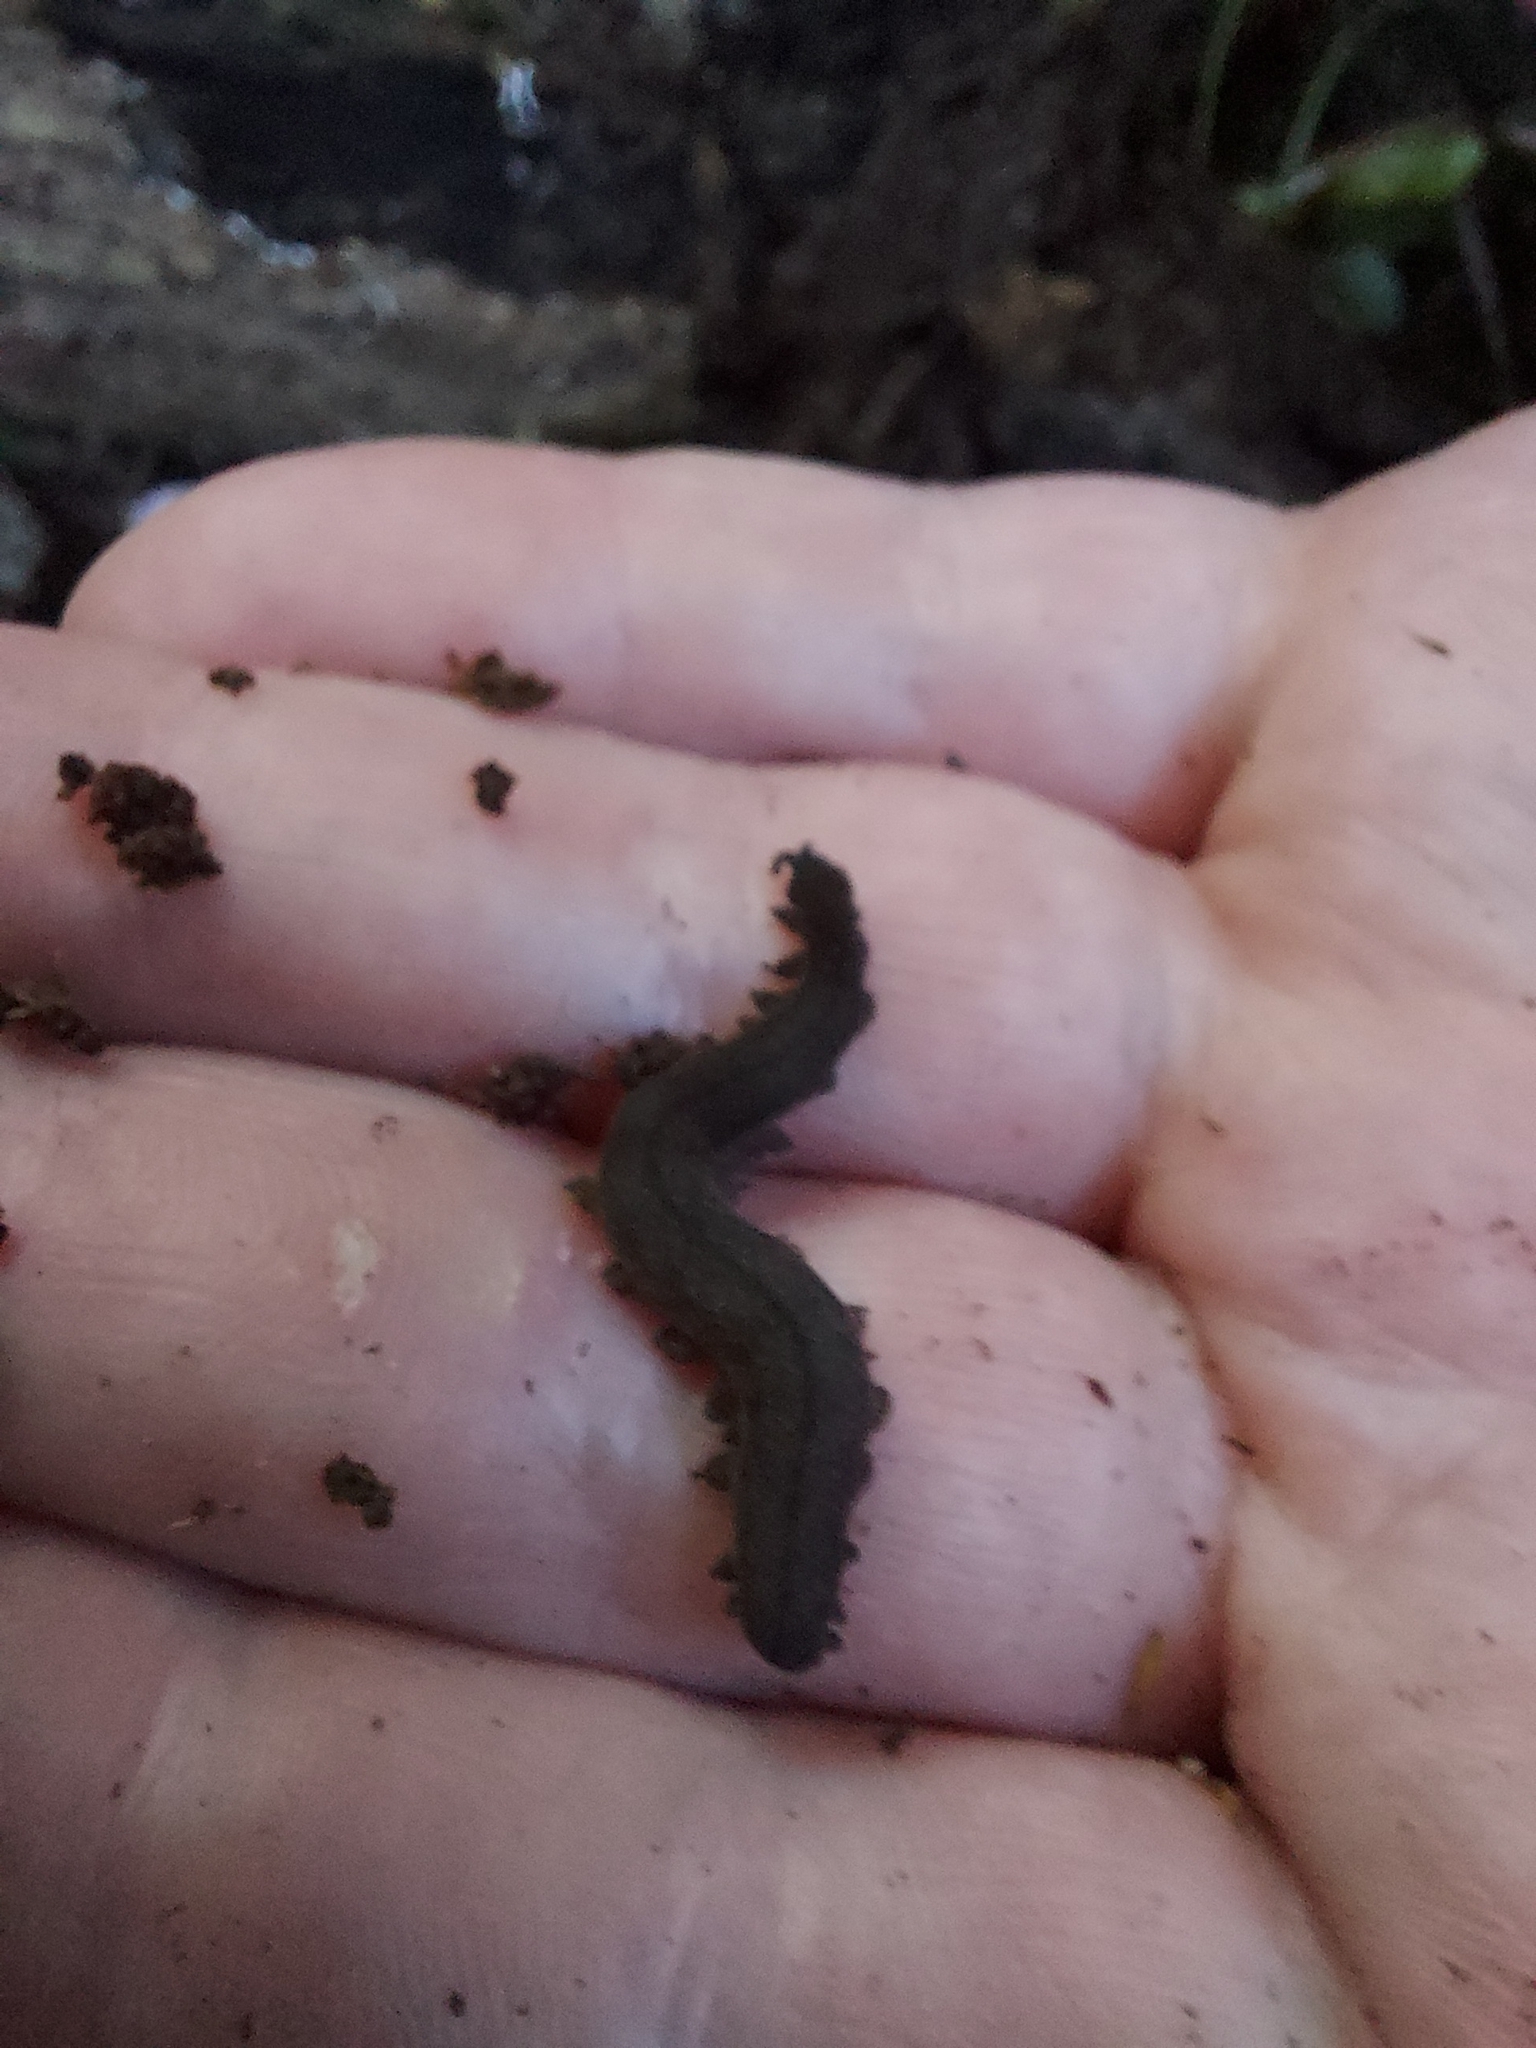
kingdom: Animalia
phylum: Onychophora
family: Peripatopsidae
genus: Peripatoides
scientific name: Peripatoides
